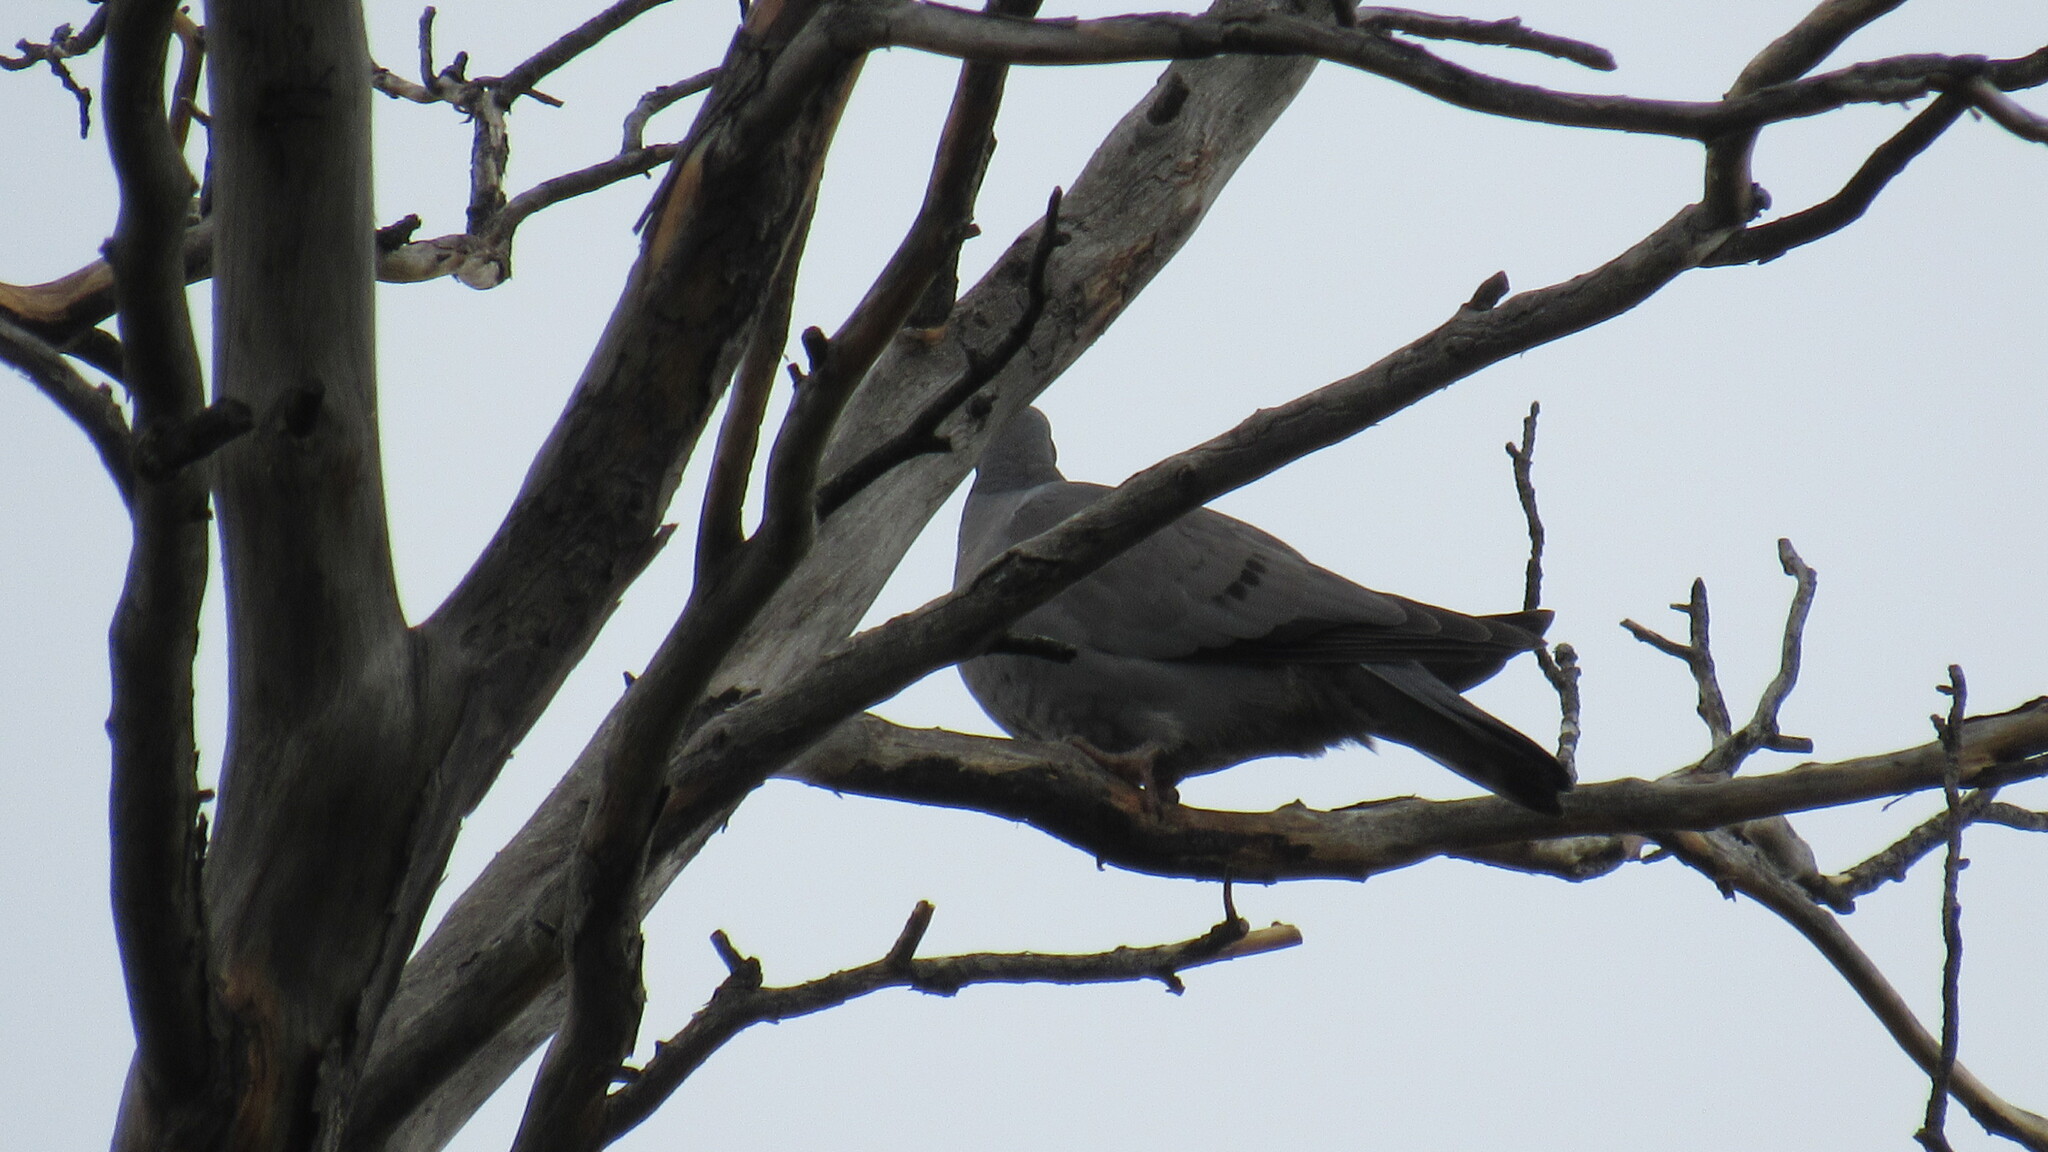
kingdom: Animalia
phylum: Chordata
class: Aves
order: Columbiformes
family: Columbidae
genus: Streptopelia
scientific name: Streptopelia decaocto
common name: Eurasian collared dove
